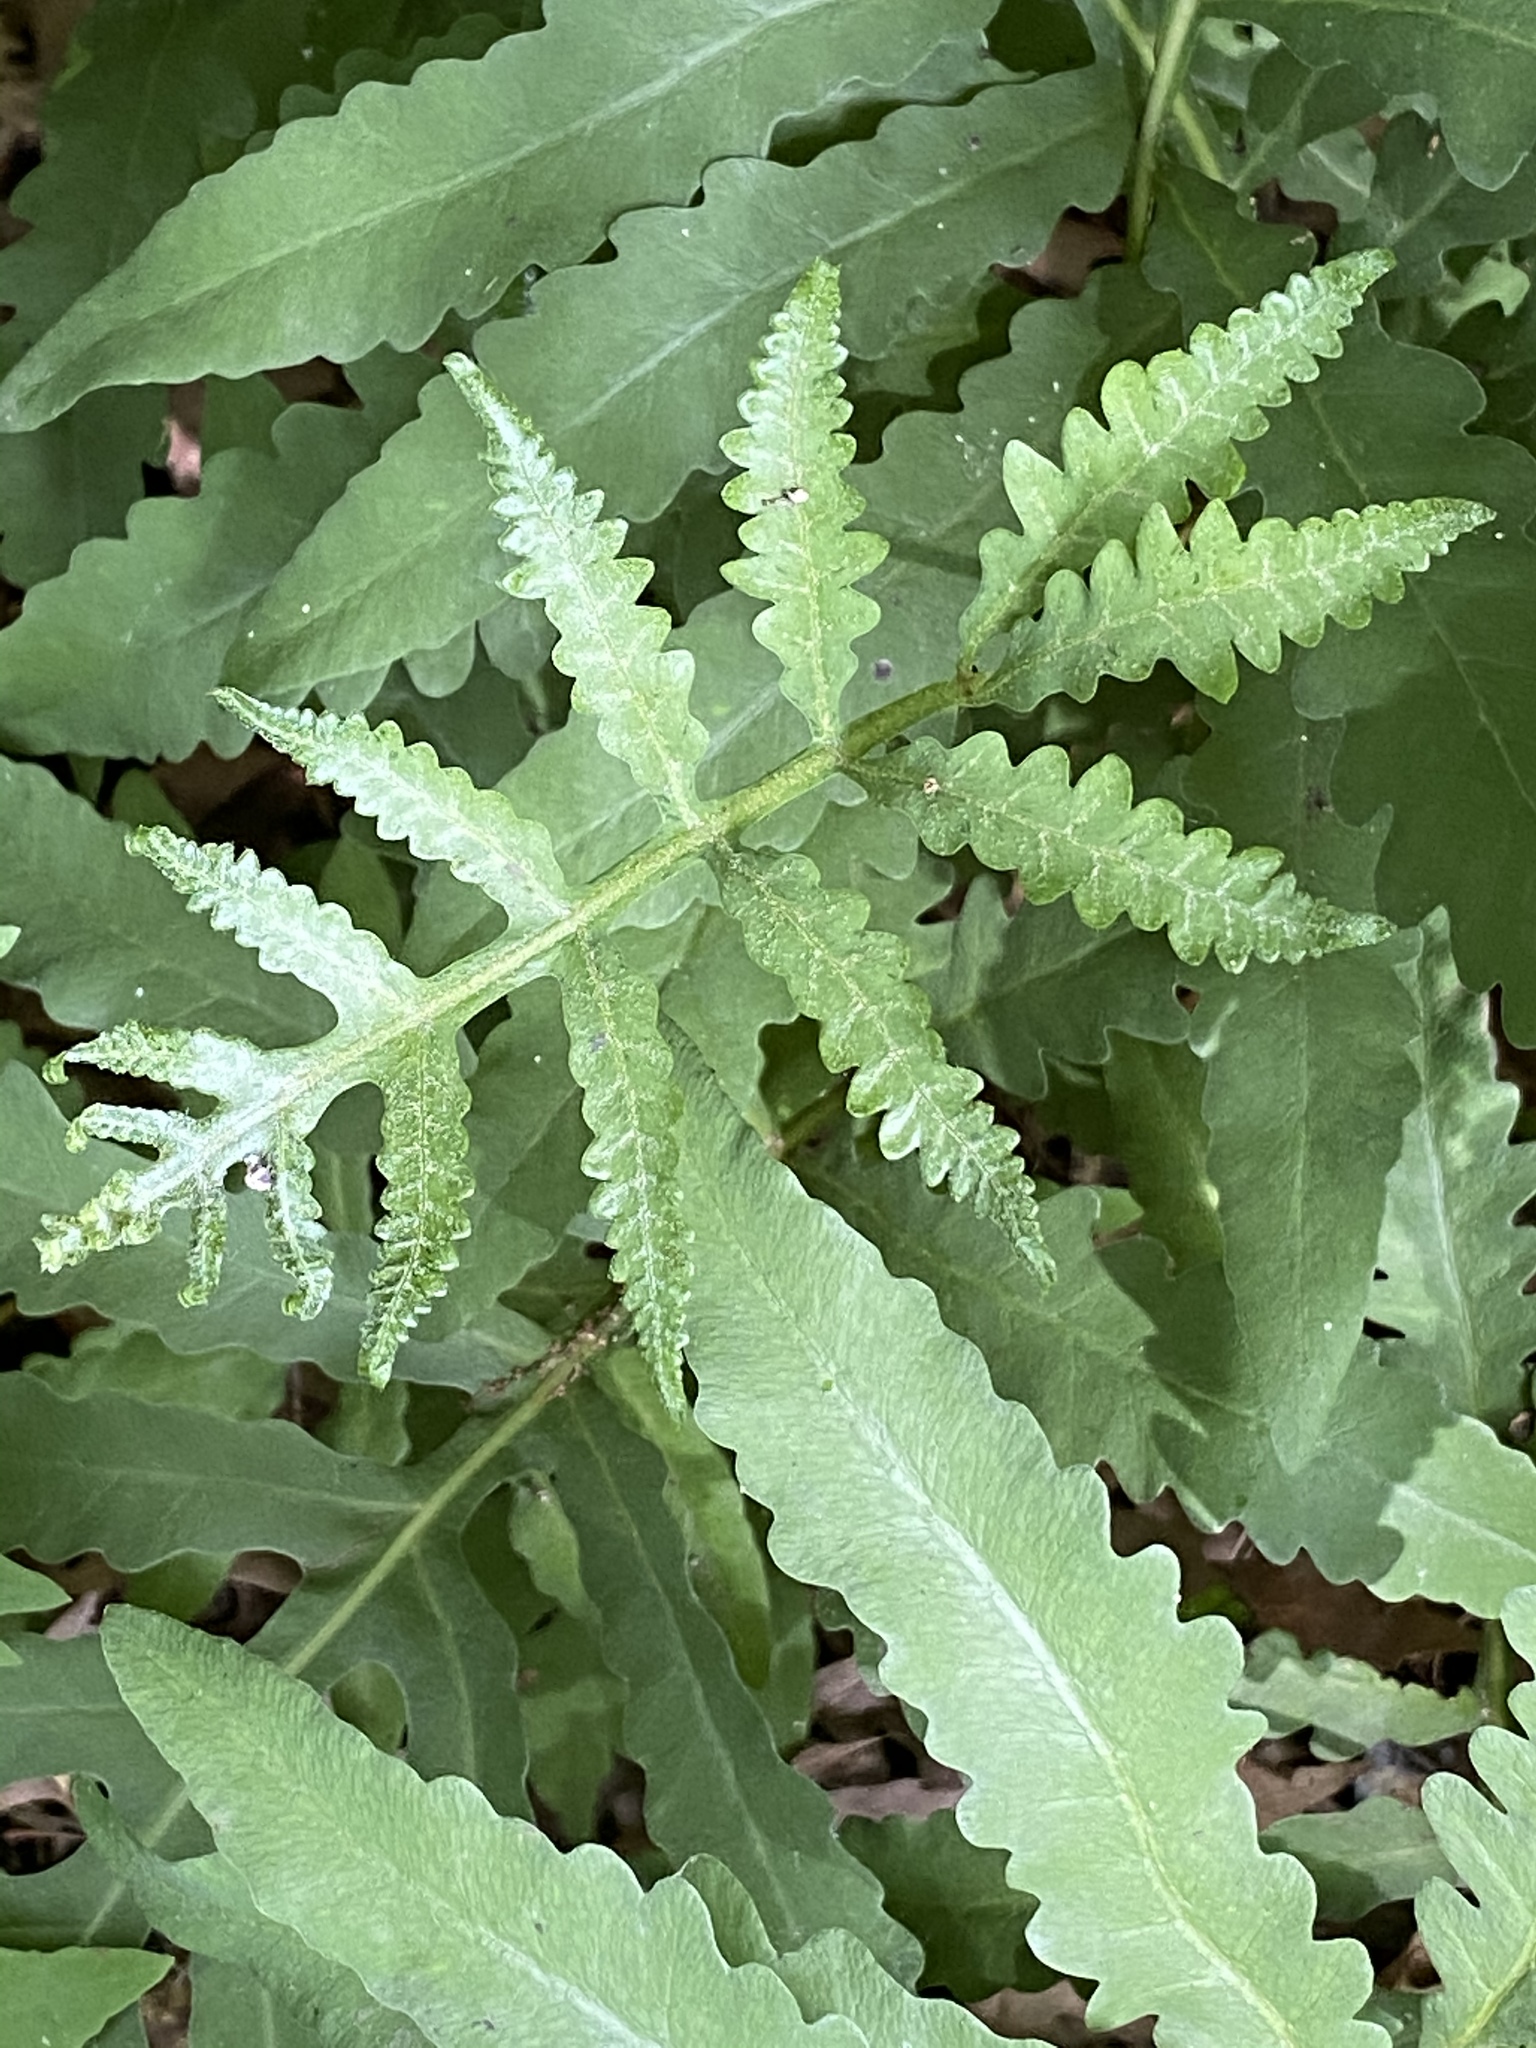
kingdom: Plantae
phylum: Tracheophyta
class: Polypodiopsida
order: Polypodiales
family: Onocleaceae
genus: Onoclea
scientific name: Onoclea sensibilis
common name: Sensitive fern
